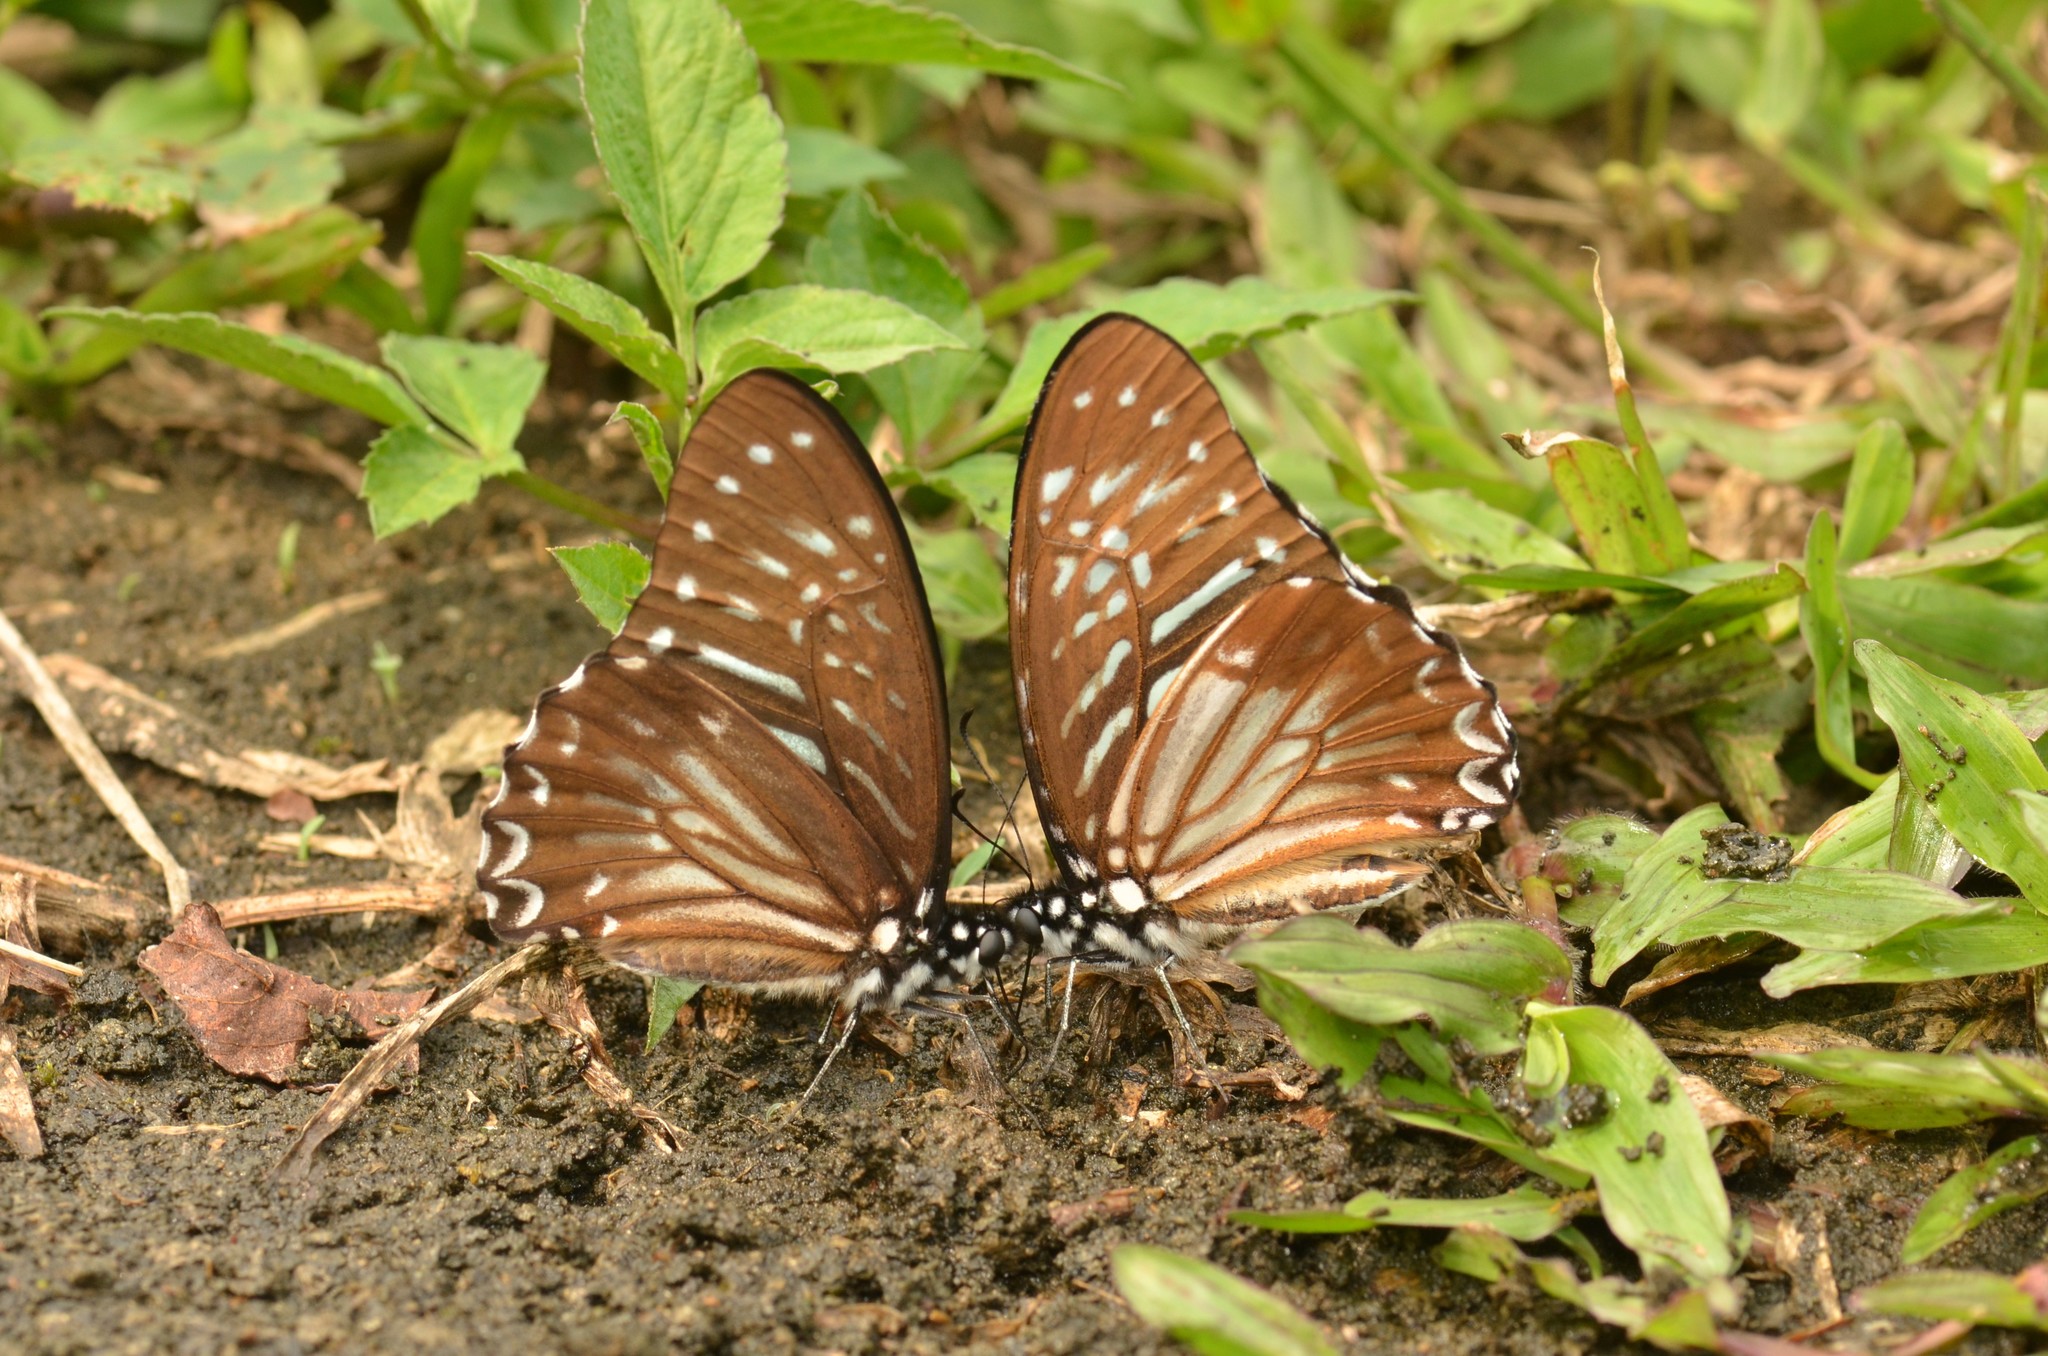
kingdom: Animalia
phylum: Arthropoda
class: Insecta
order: Lepidoptera
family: Papilionidae
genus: Graphium
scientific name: Graphium macareus
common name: Lesser zebra
